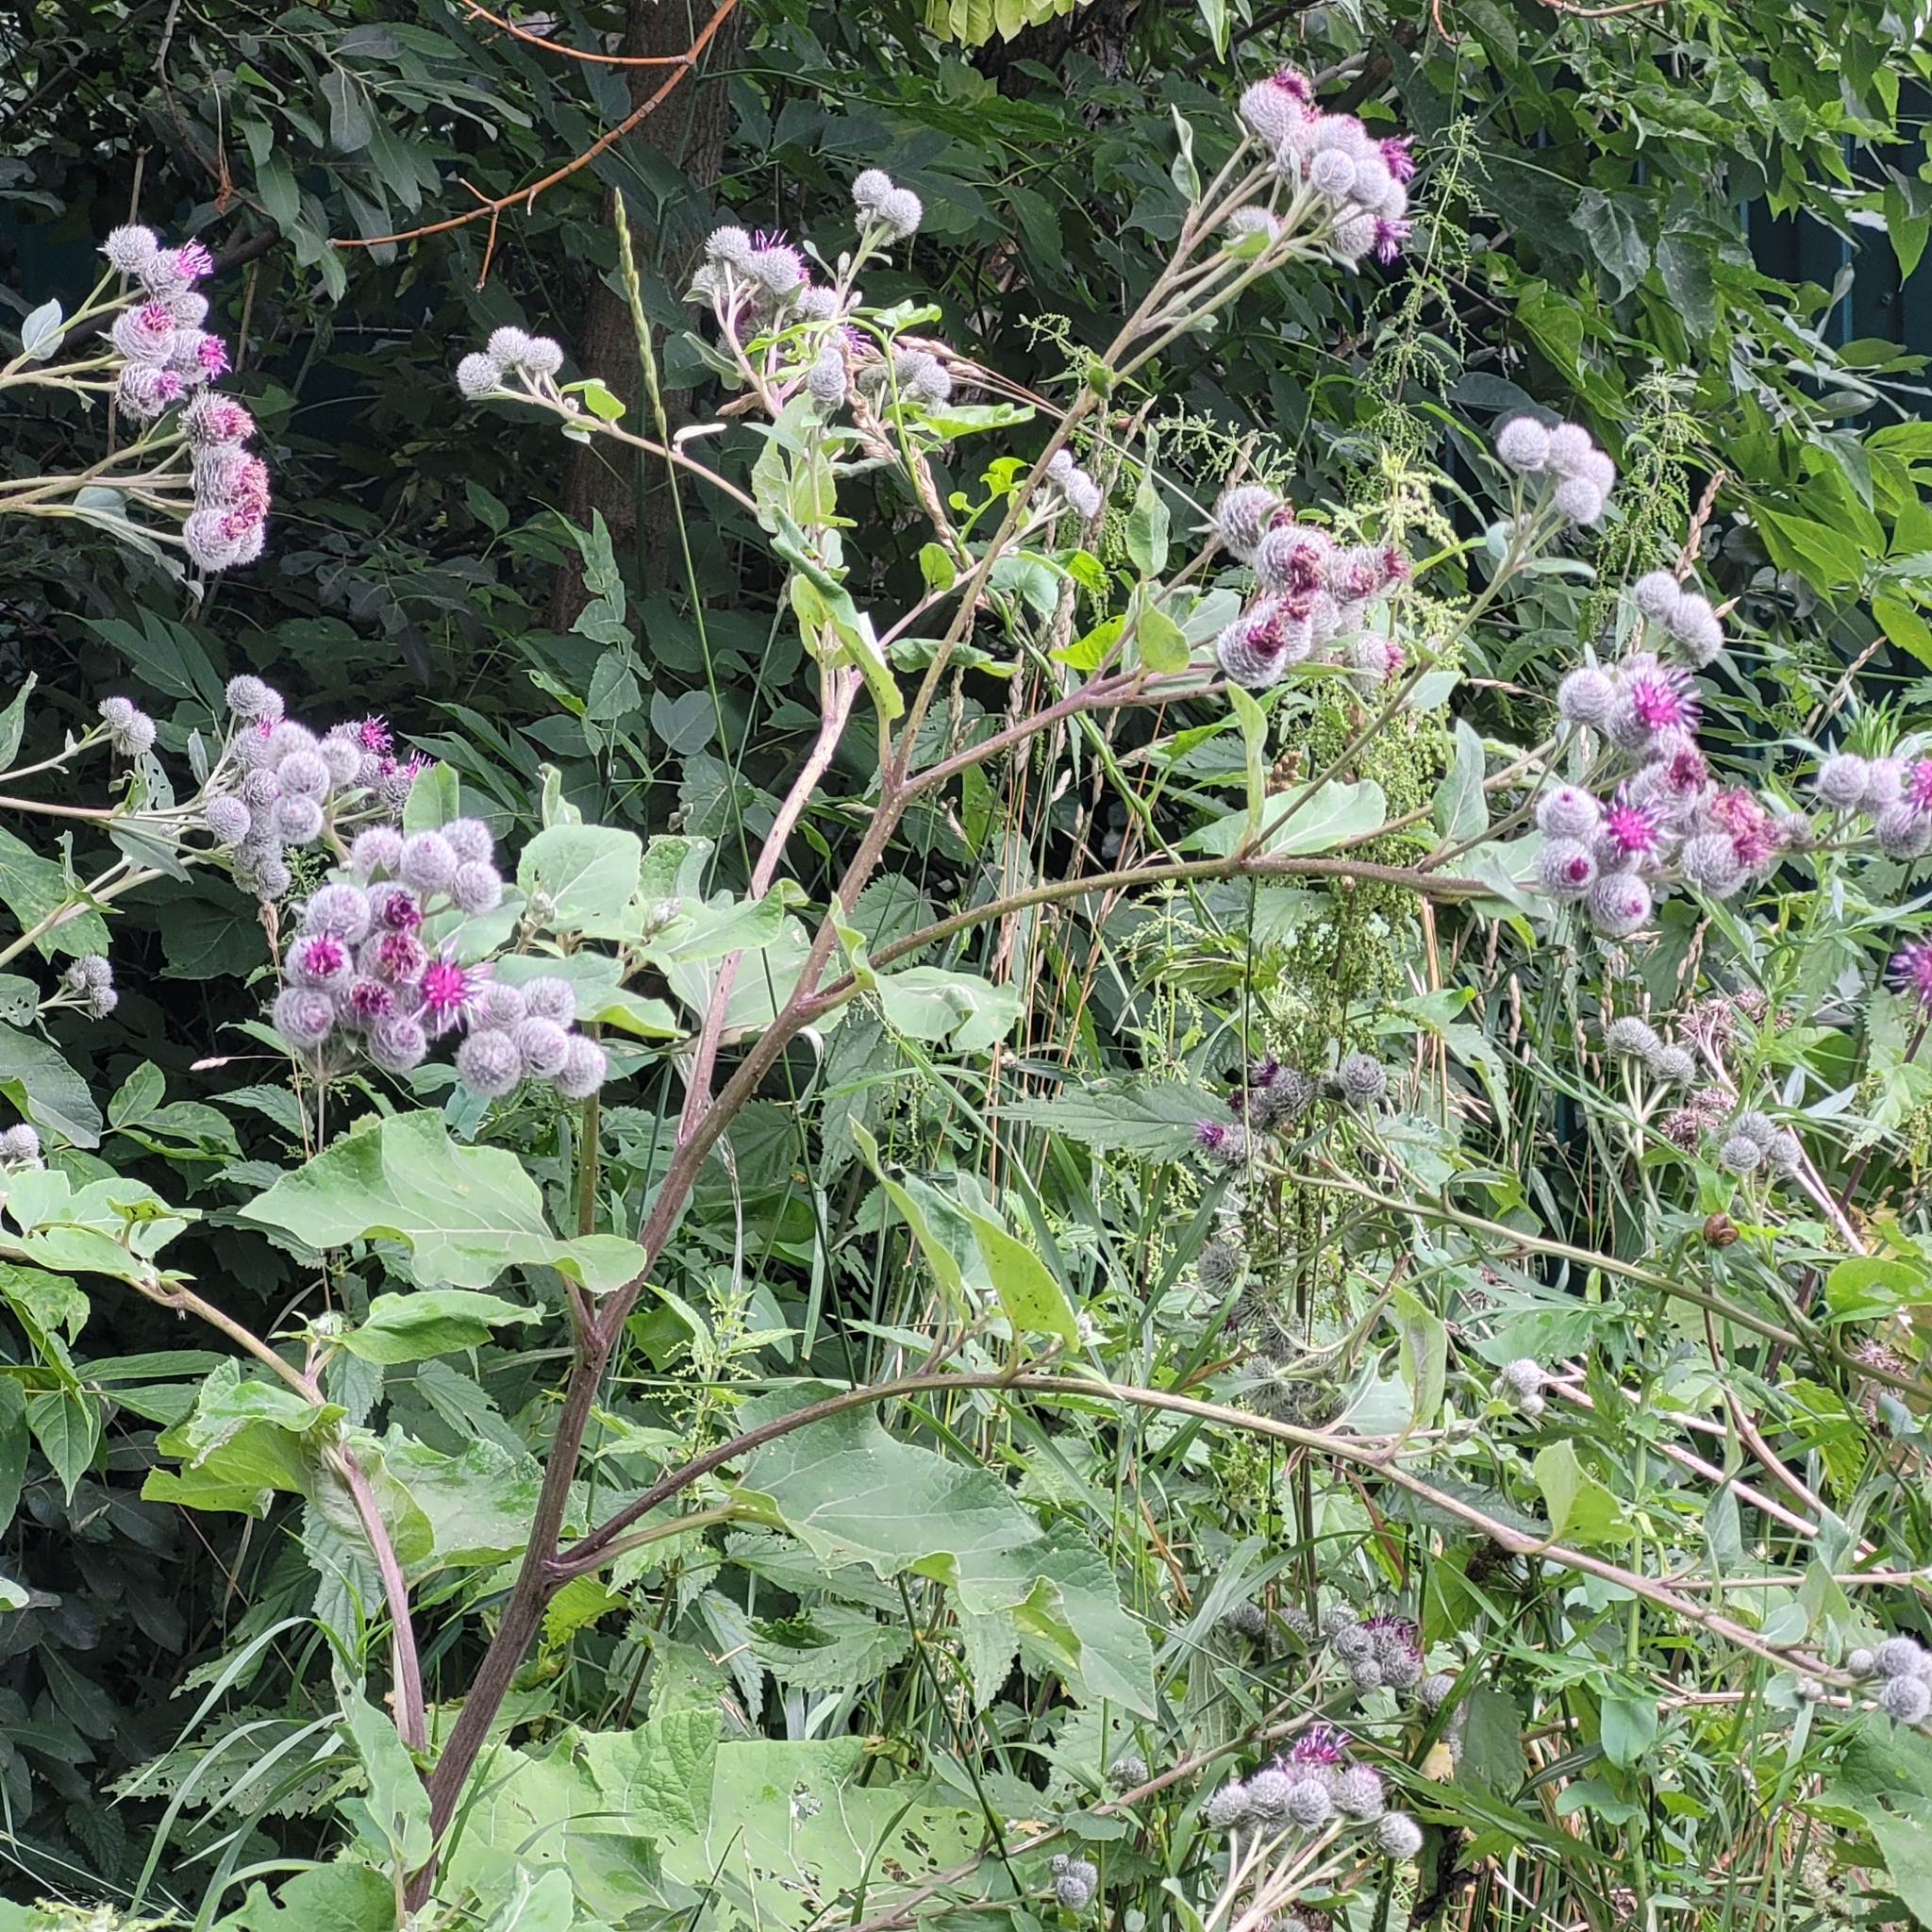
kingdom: Plantae
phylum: Tracheophyta
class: Magnoliopsida
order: Asterales
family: Asteraceae
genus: Arctium
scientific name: Arctium tomentosum
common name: Woolly burdock
